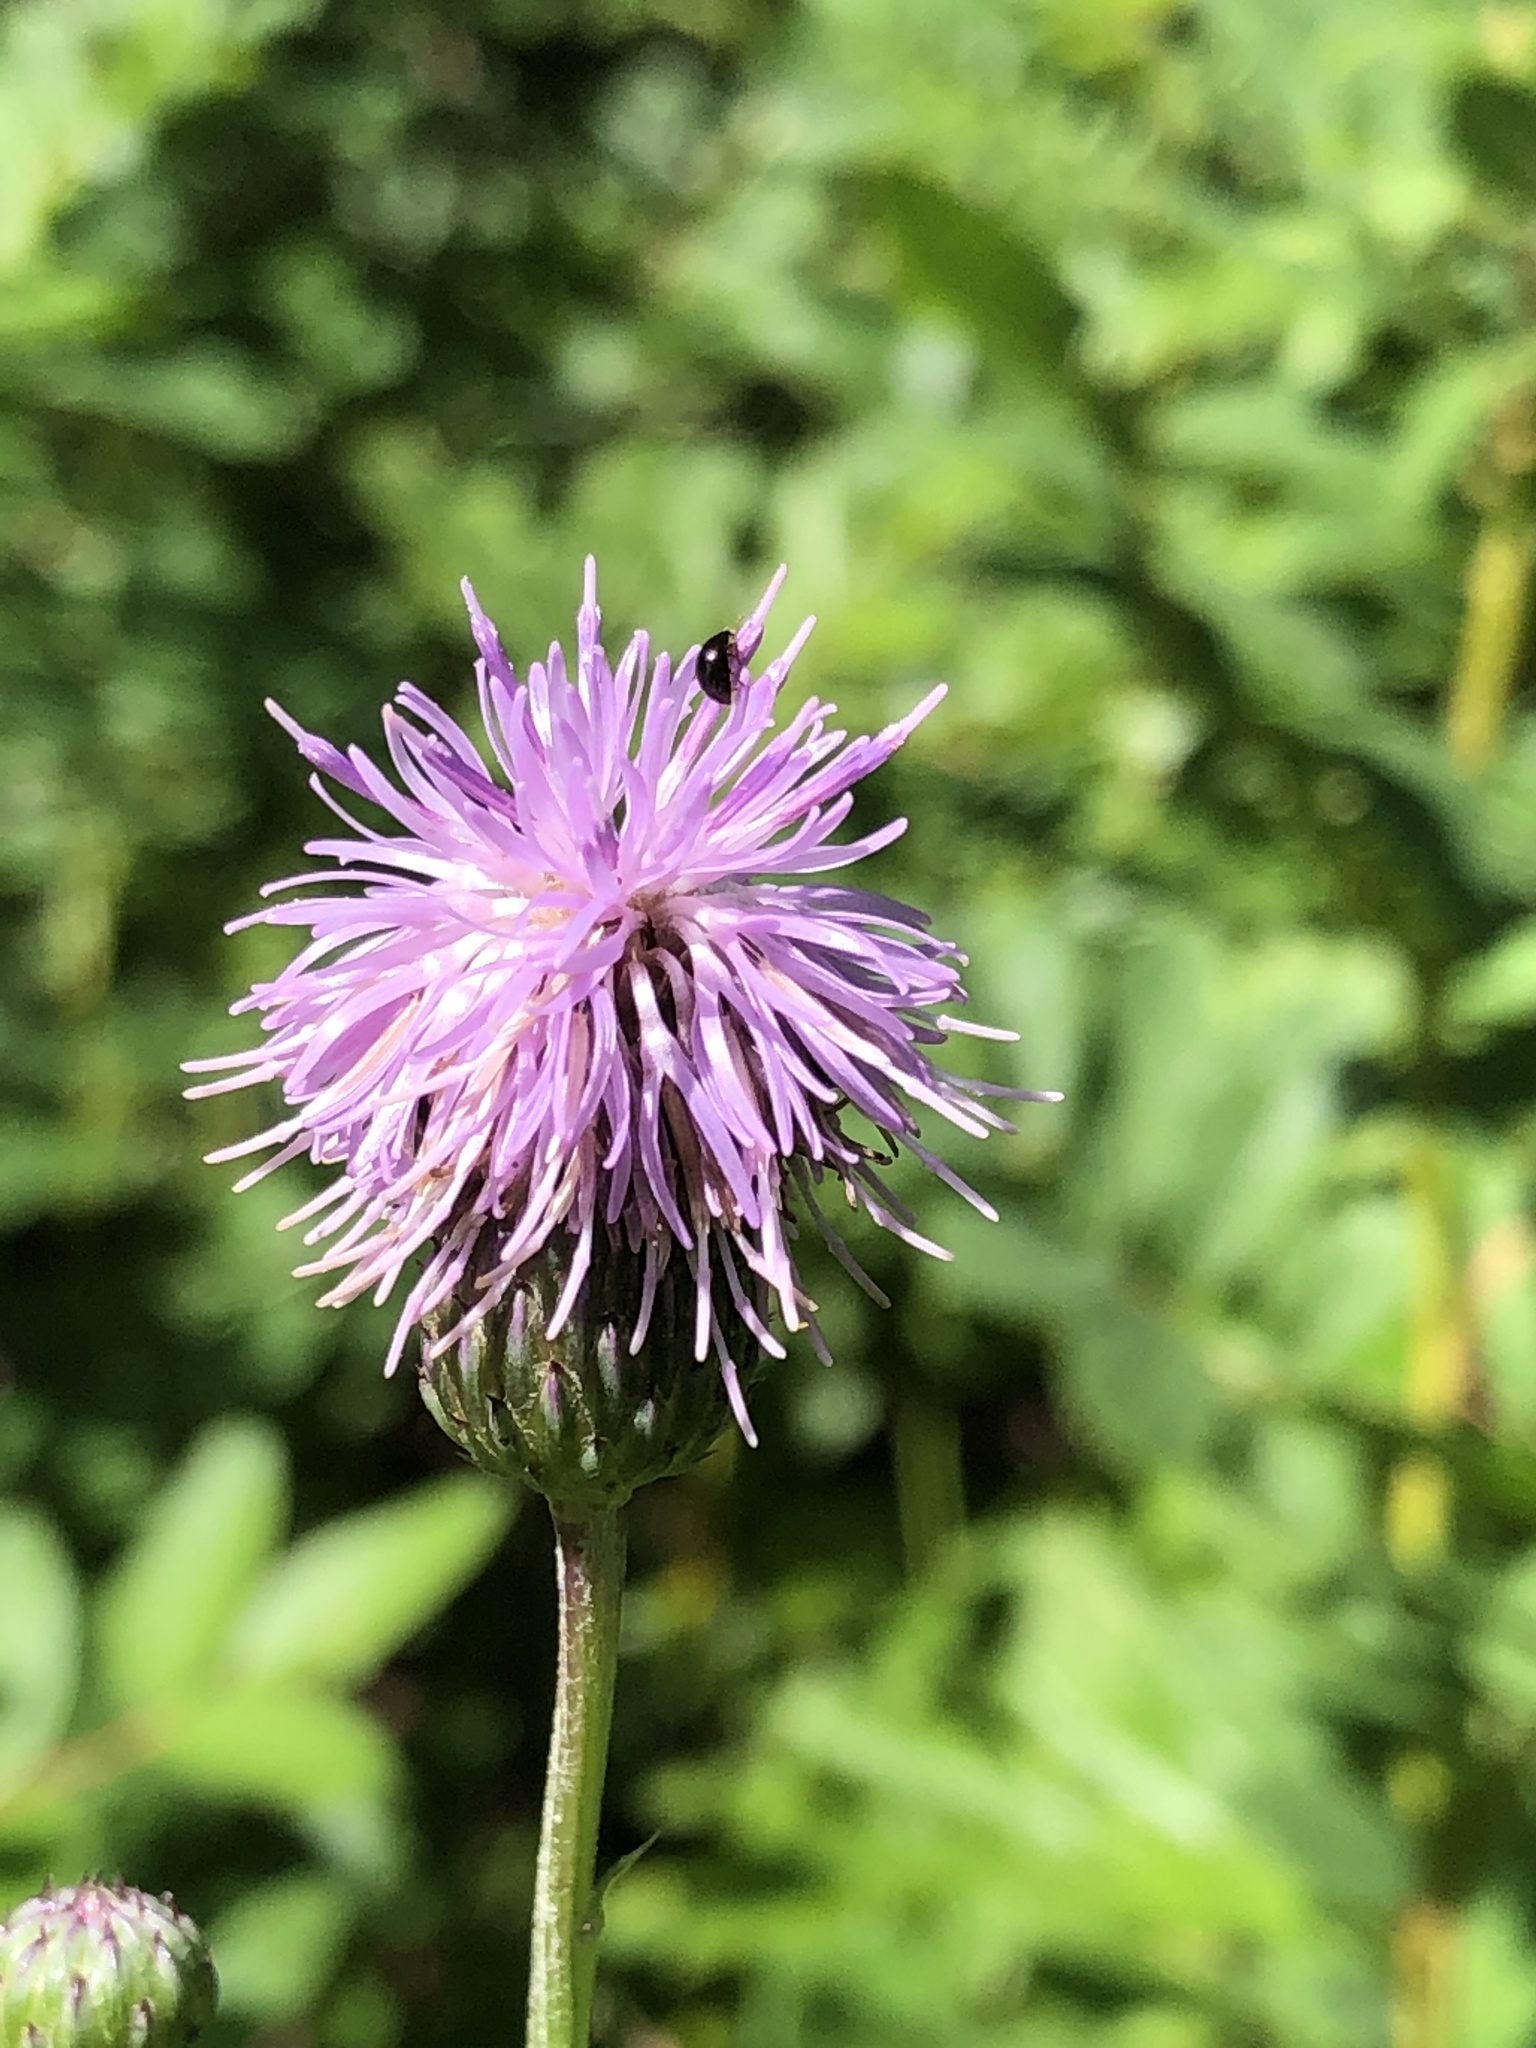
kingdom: Plantae
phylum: Tracheophyta
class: Magnoliopsida
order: Asterales
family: Asteraceae
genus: Cirsium
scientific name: Cirsium arvense
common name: Creeping thistle
